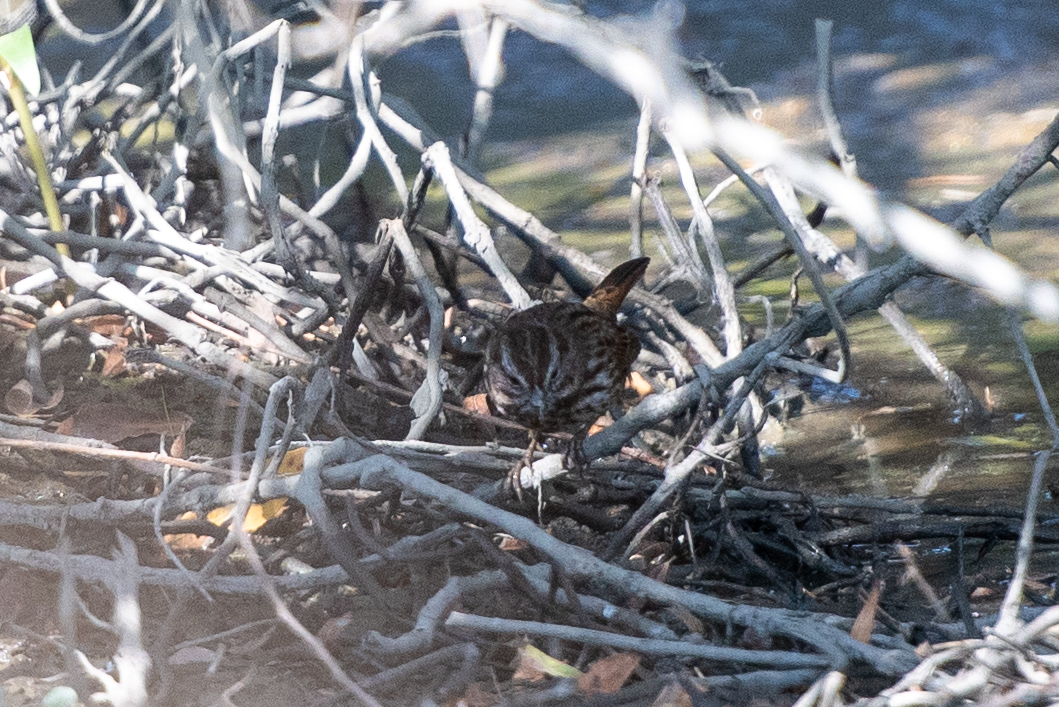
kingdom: Animalia
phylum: Chordata
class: Aves
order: Passeriformes
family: Passerellidae
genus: Melospiza
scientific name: Melospiza melodia
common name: Song sparrow
